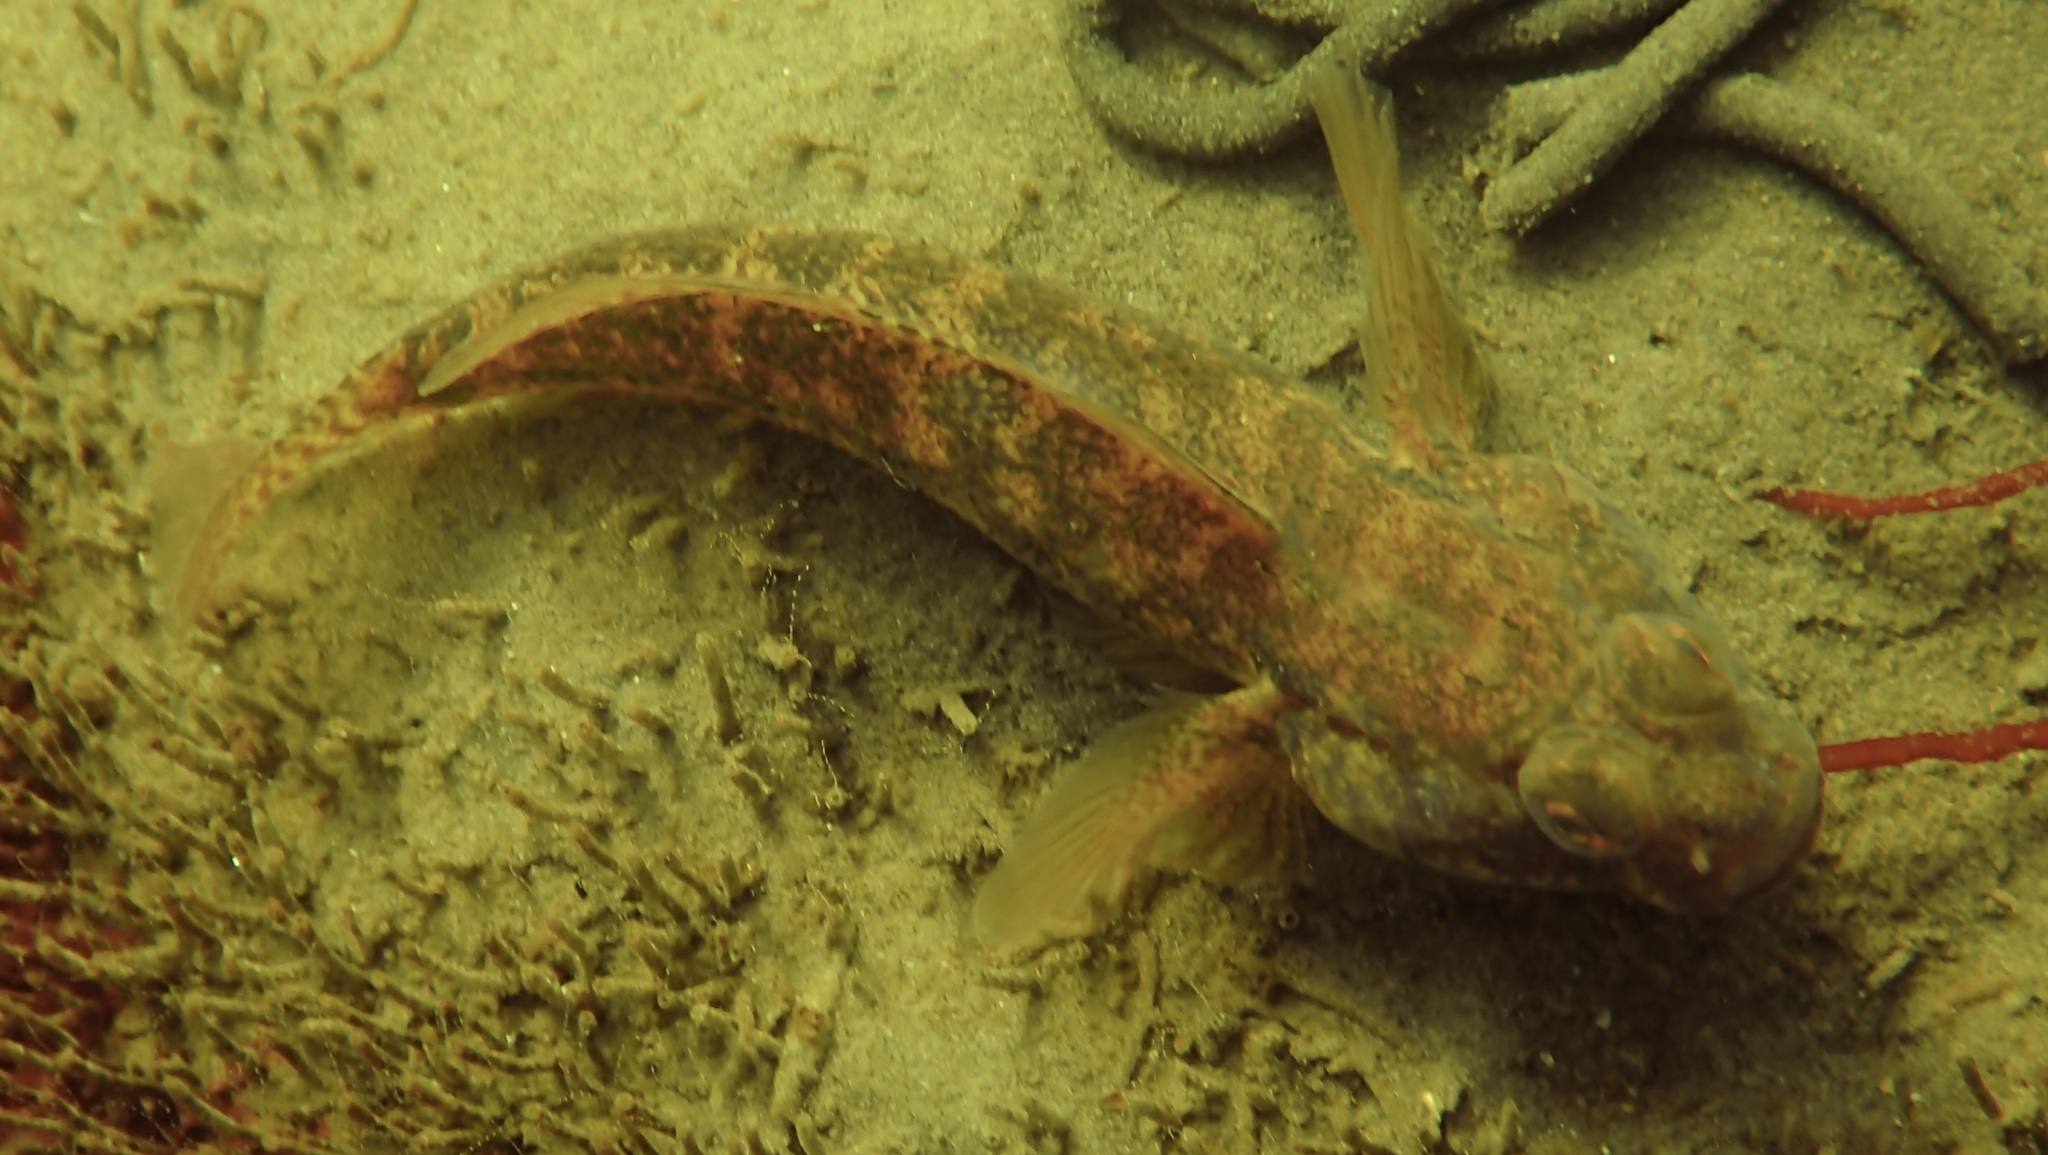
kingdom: Animalia
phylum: Chordata
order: Perciformes
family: Gobiidae
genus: Gobius
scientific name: Gobius niger
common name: Black goby
